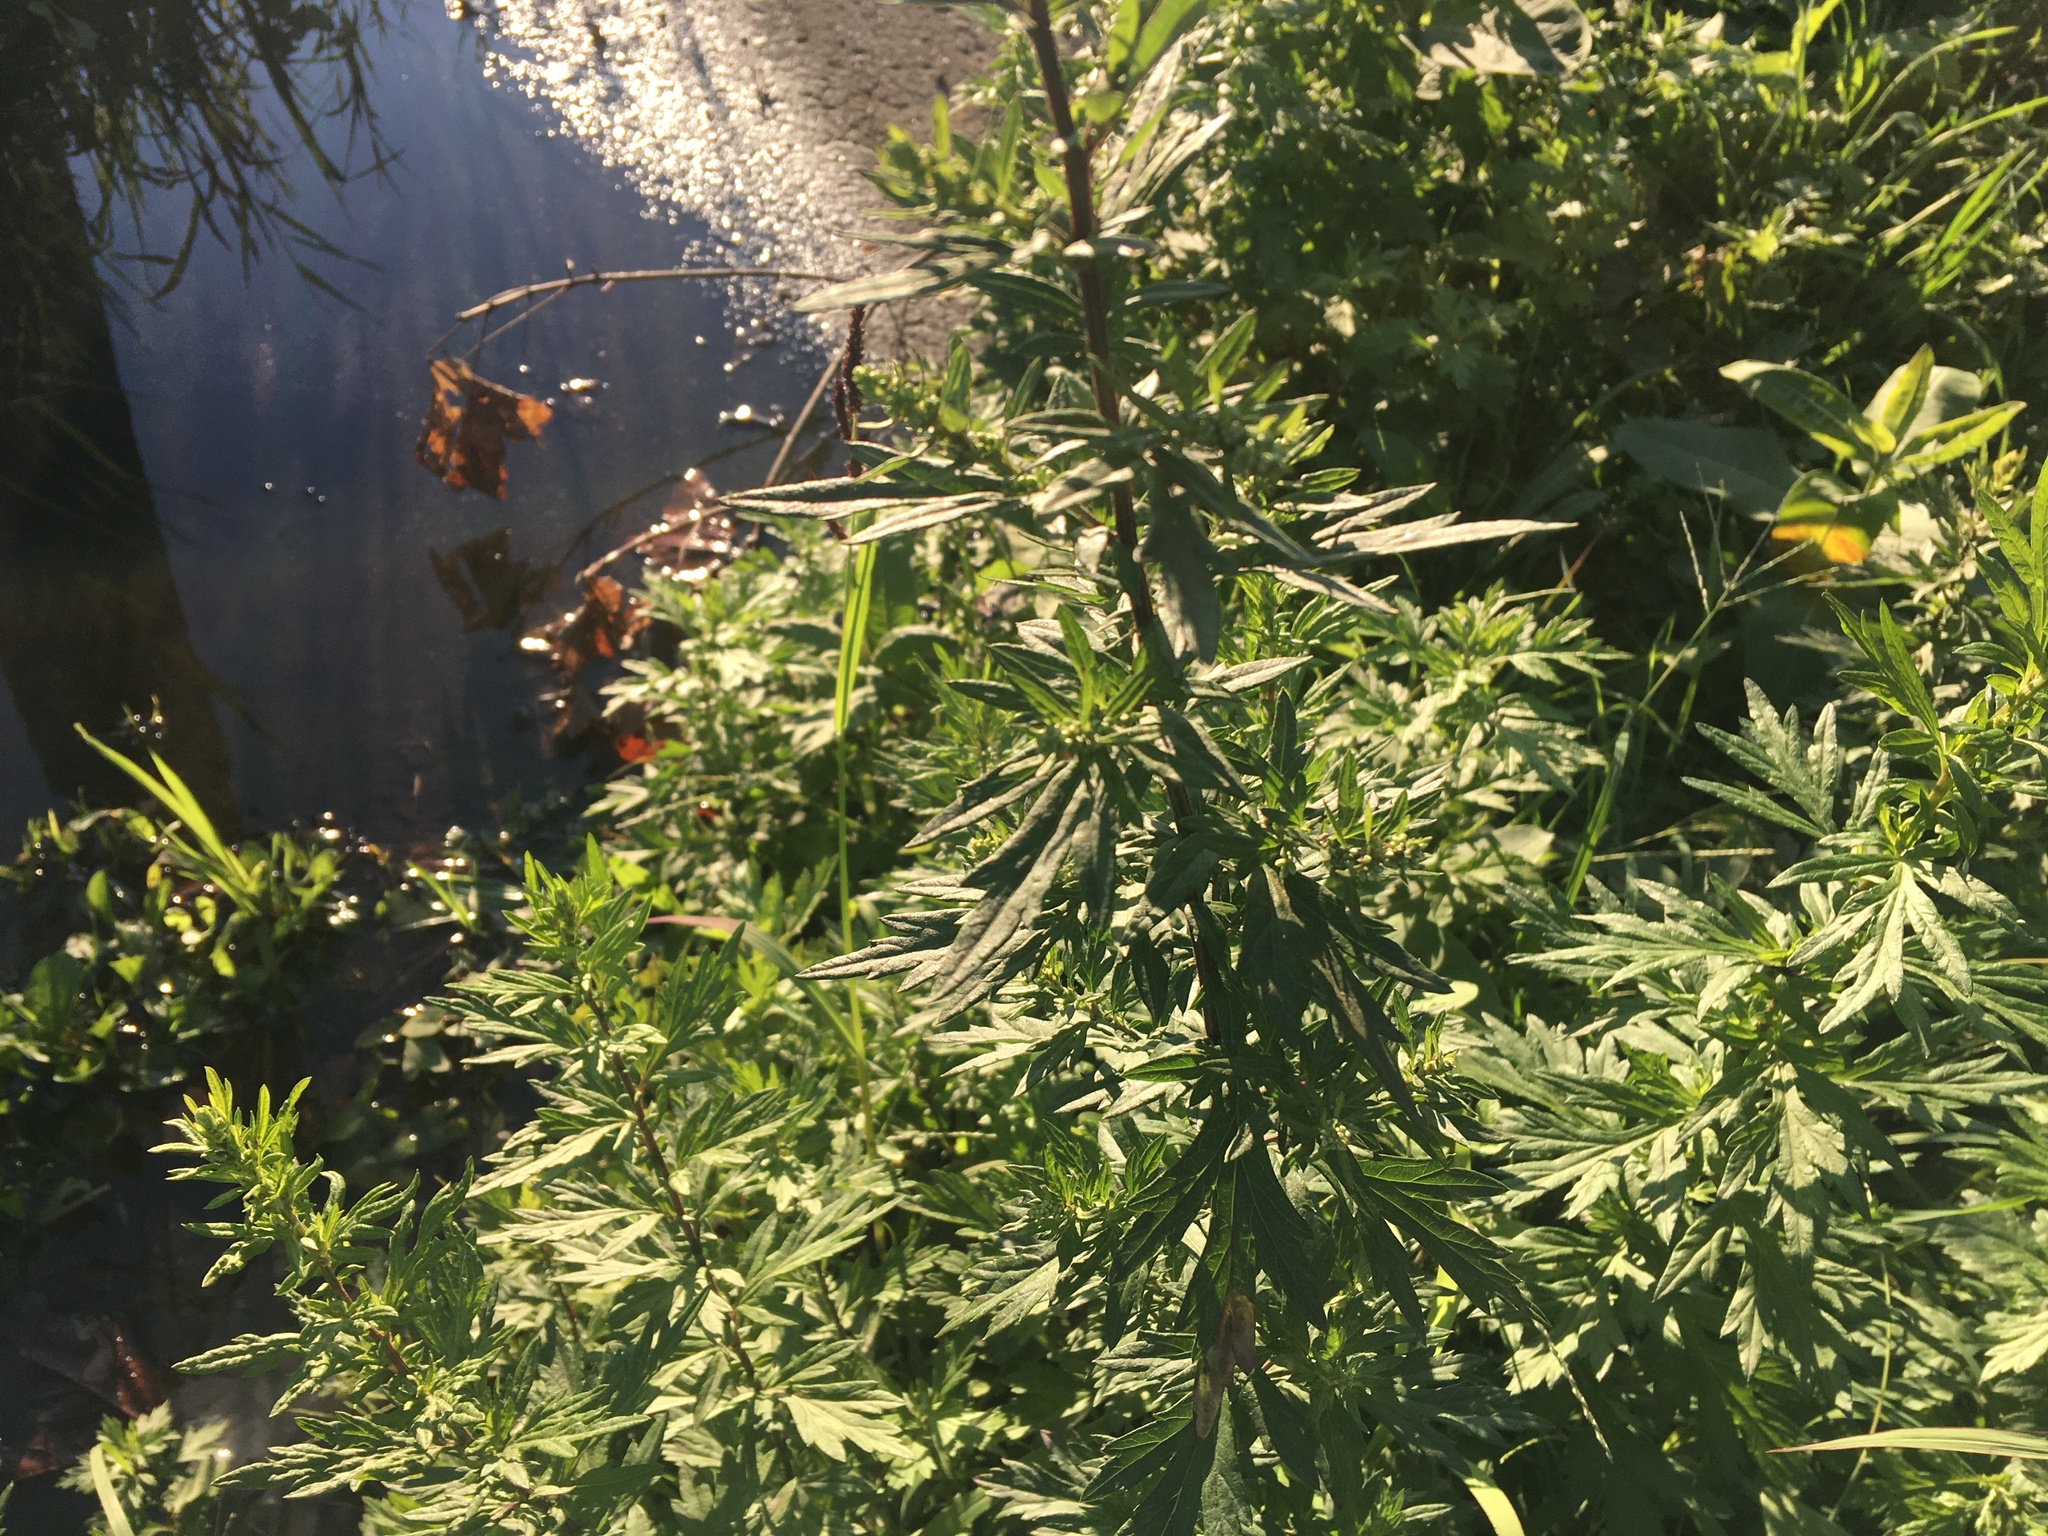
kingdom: Plantae
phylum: Tracheophyta
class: Magnoliopsida
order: Asterales
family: Asteraceae
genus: Artemisia
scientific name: Artemisia vulgaris
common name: Mugwort
